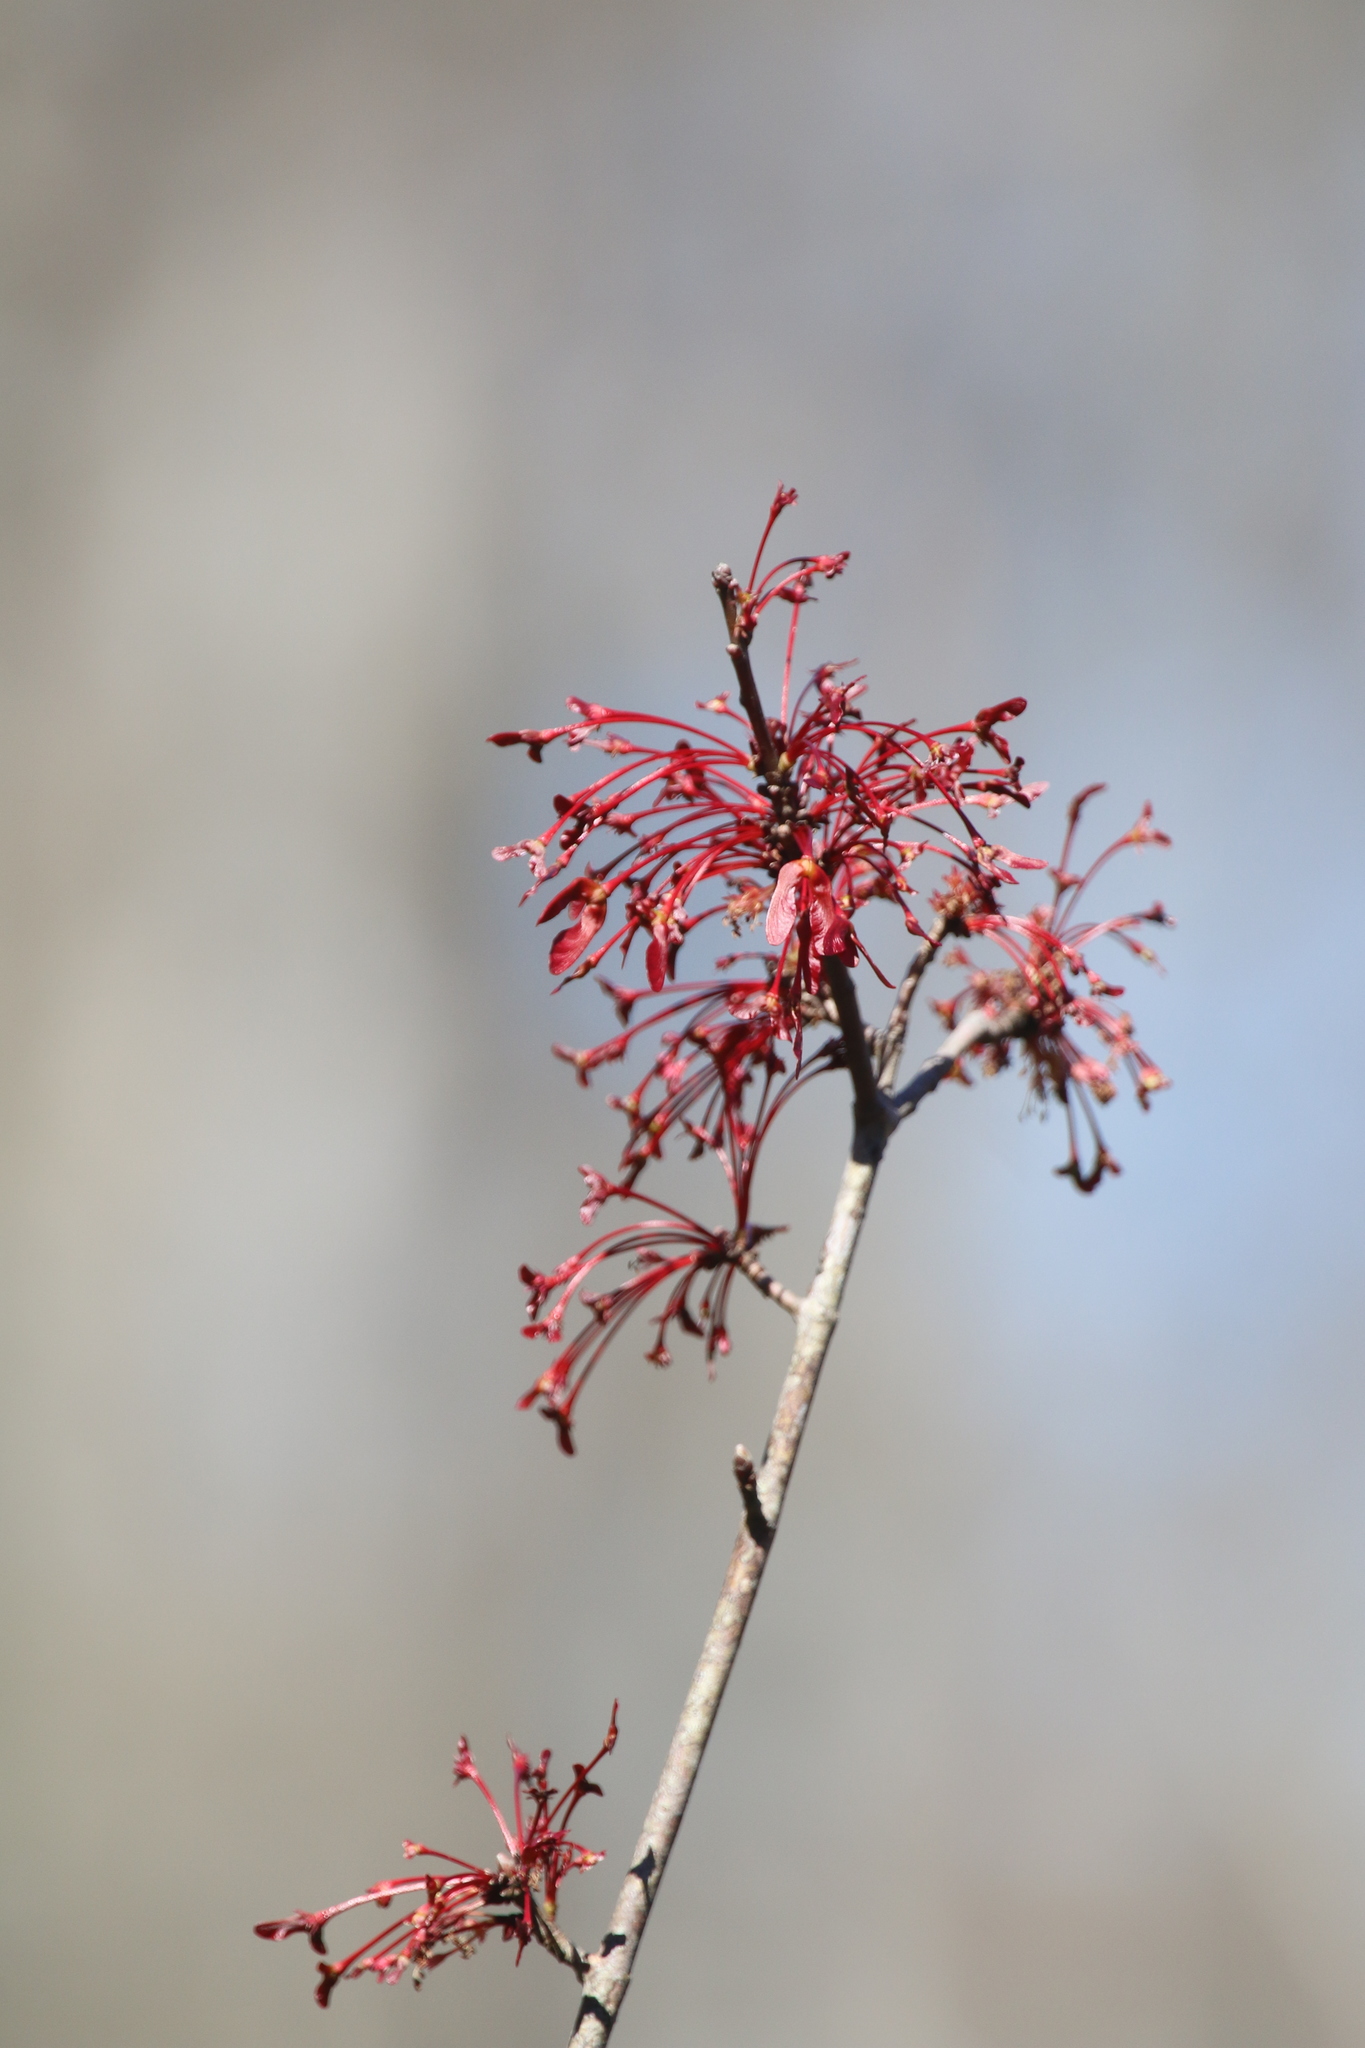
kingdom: Plantae
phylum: Tracheophyta
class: Magnoliopsida
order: Sapindales
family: Sapindaceae
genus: Acer
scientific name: Acer rubrum
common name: Red maple
